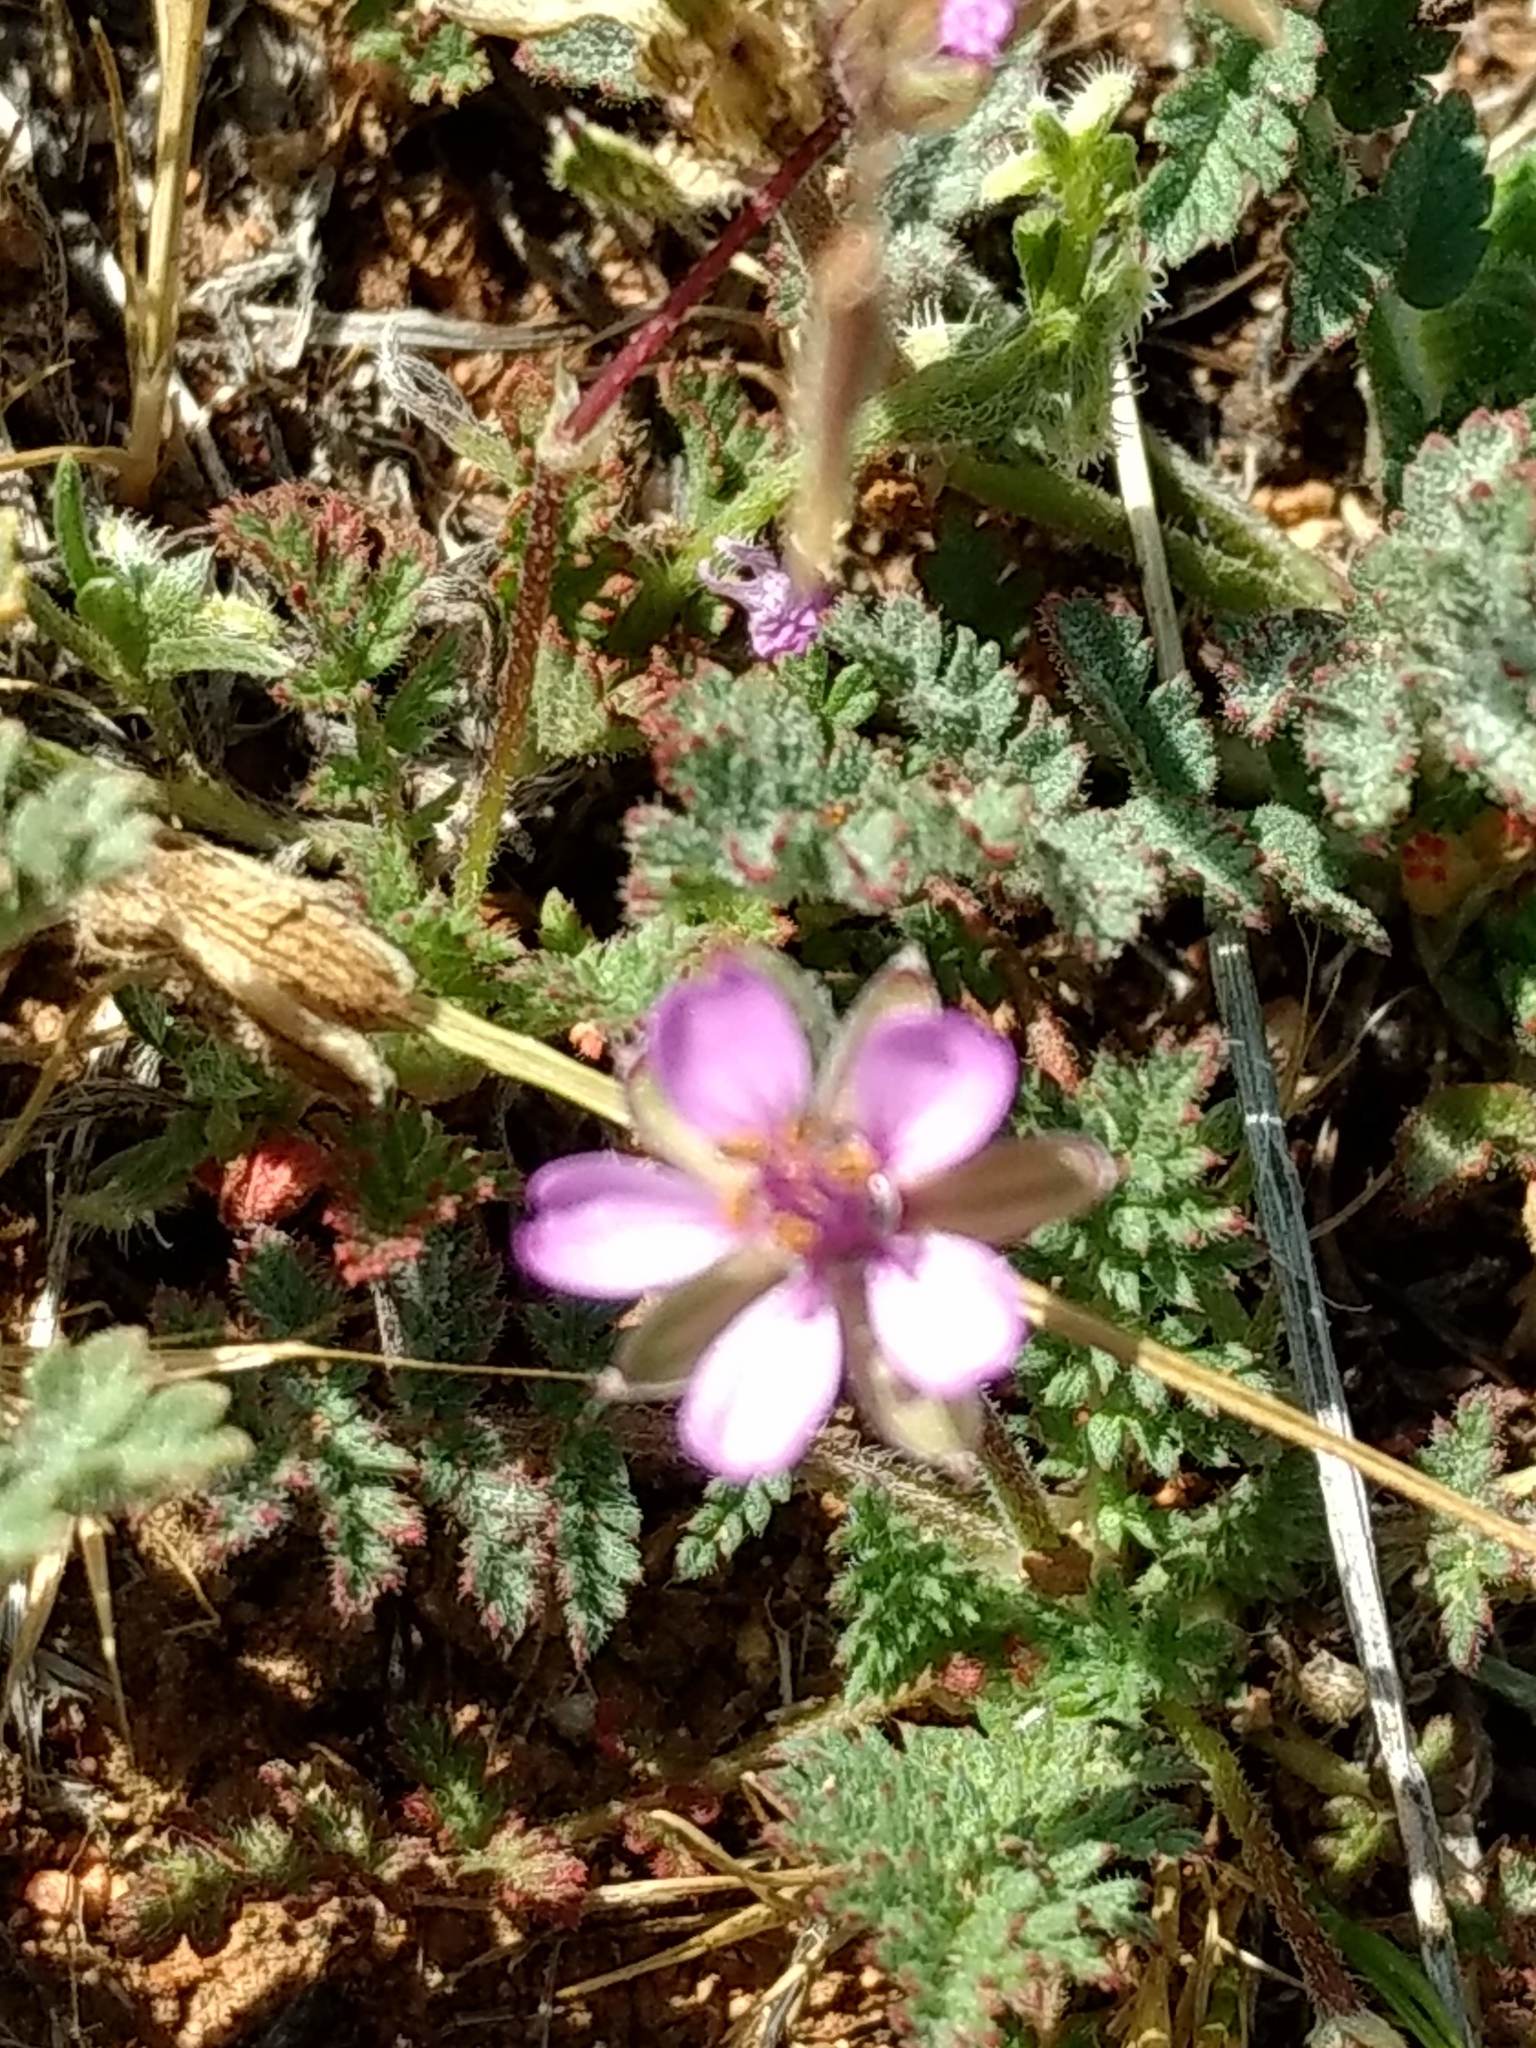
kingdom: Plantae
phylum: Tracheophyta
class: Magnoliopsida
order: Geraniales
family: Geraniaceae
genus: Erodium
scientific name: Erodium cicutarium
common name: Common stork's-bill
